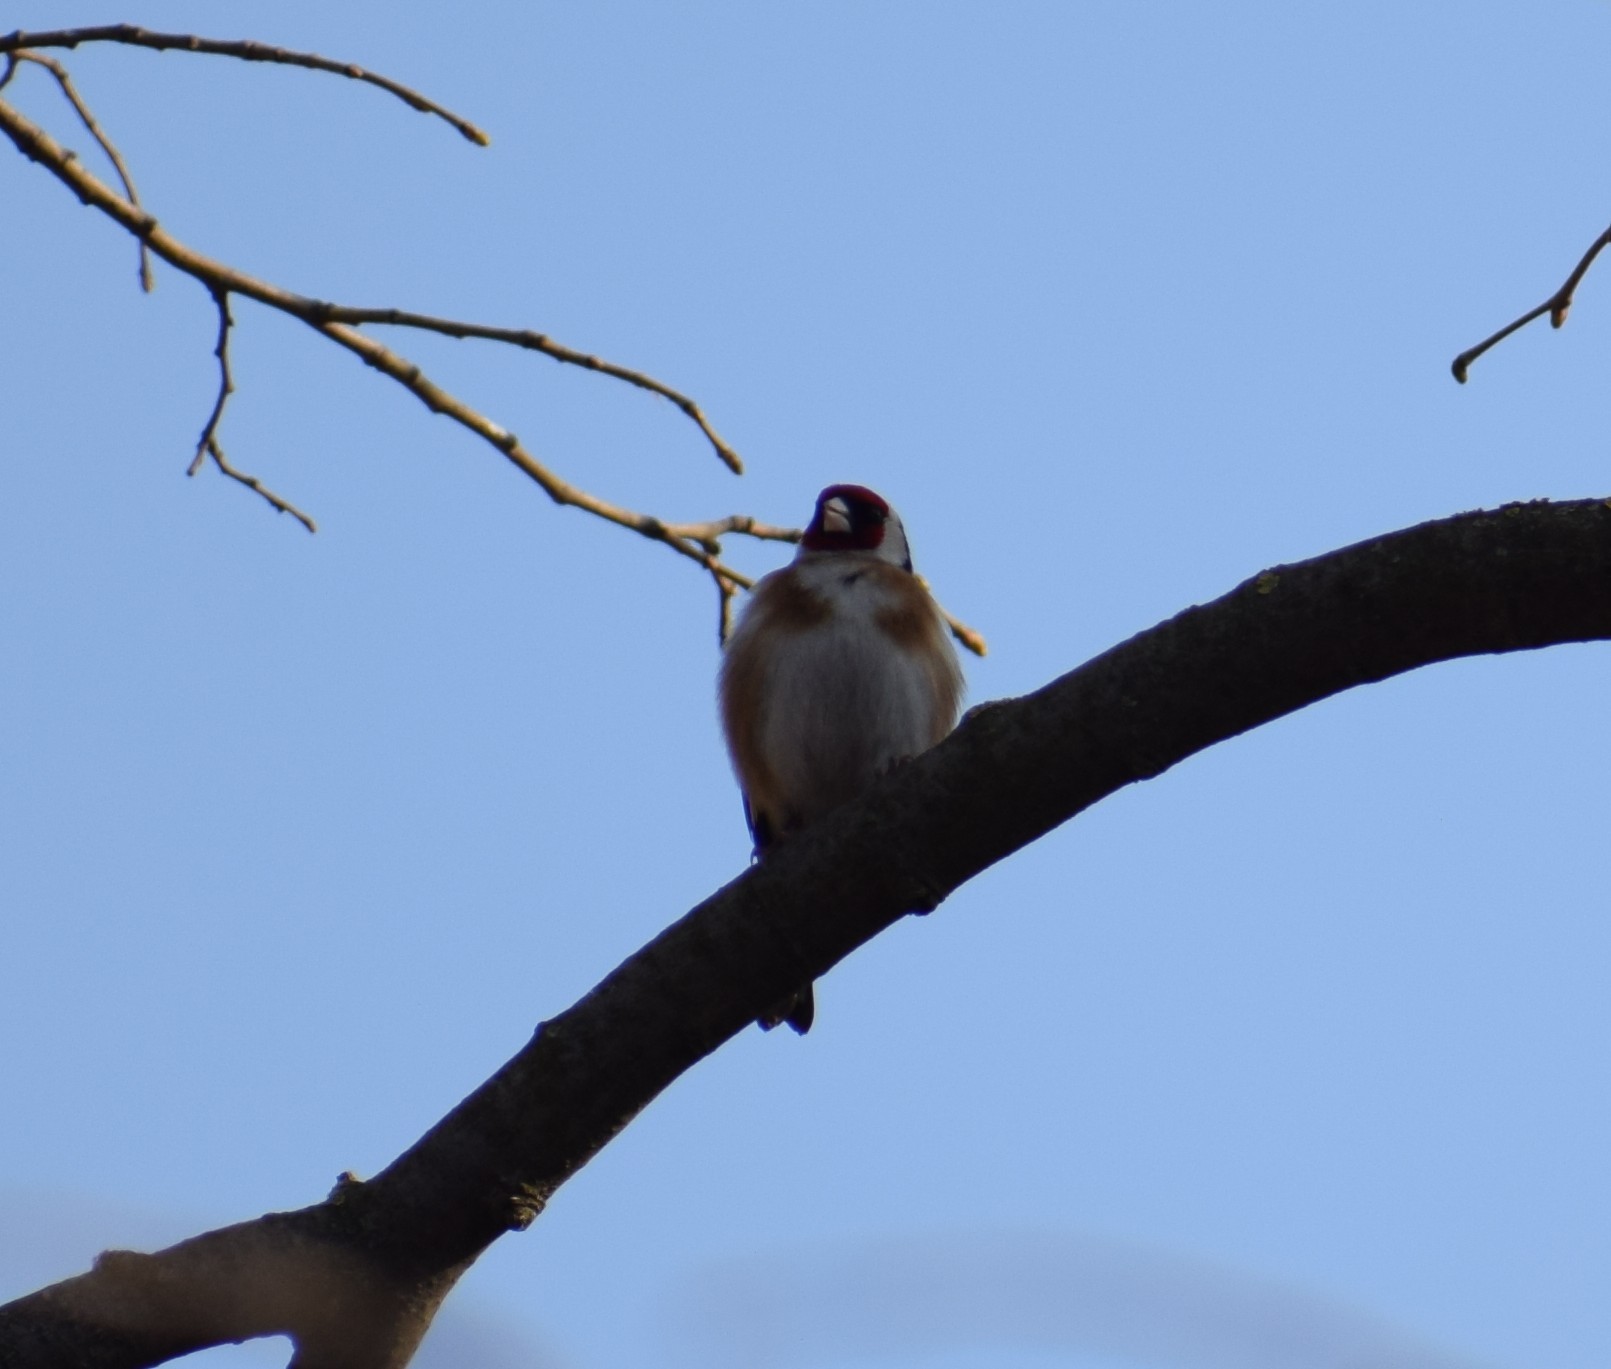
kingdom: Animalia
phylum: Chordata
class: Aves
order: Passeriformes
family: Fringillidae
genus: Carduelis
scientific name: Carduelis carduelis
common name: European goldfinch
